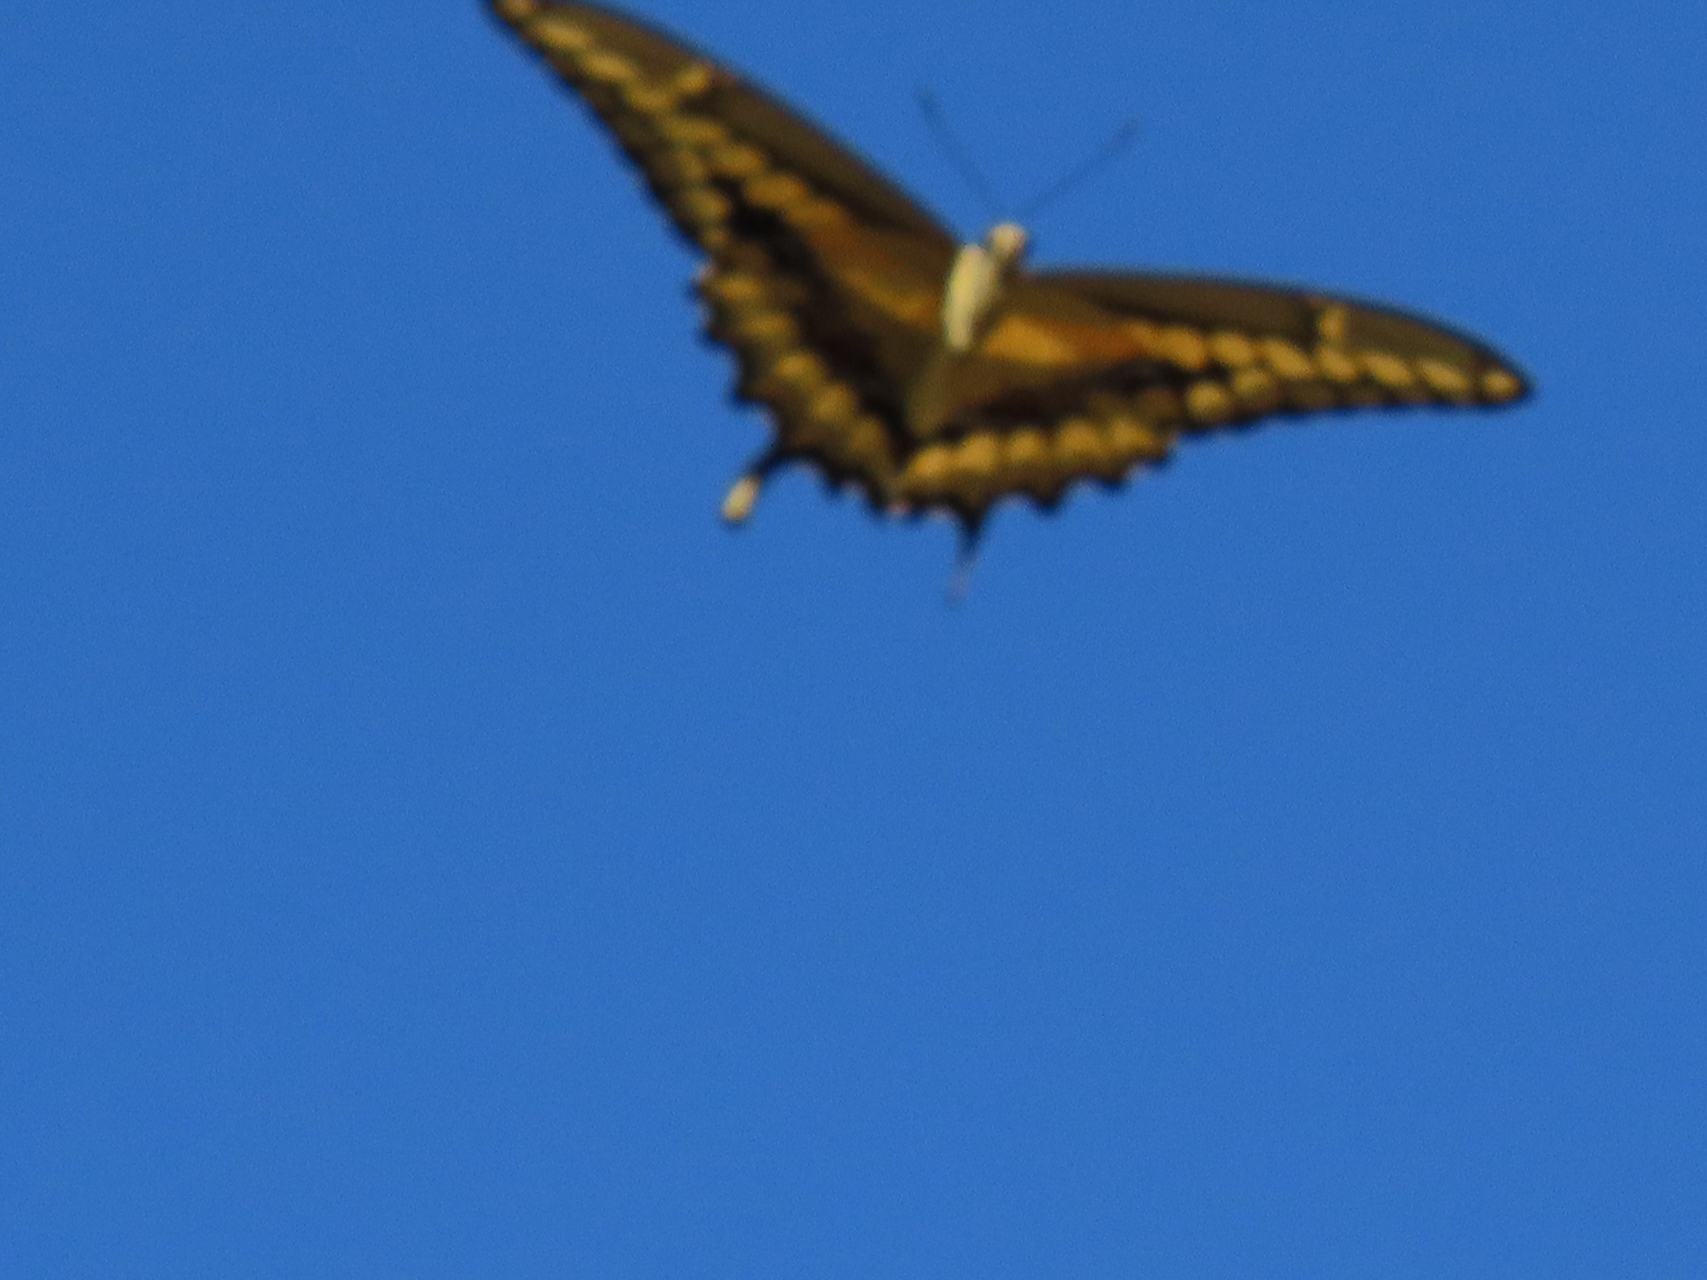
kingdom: Animalia
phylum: Arthropoda
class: Insecta
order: Lepidoptera
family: Papilionidae
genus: Papilio
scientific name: Papilio rumiko
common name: Western giant swallowtail
